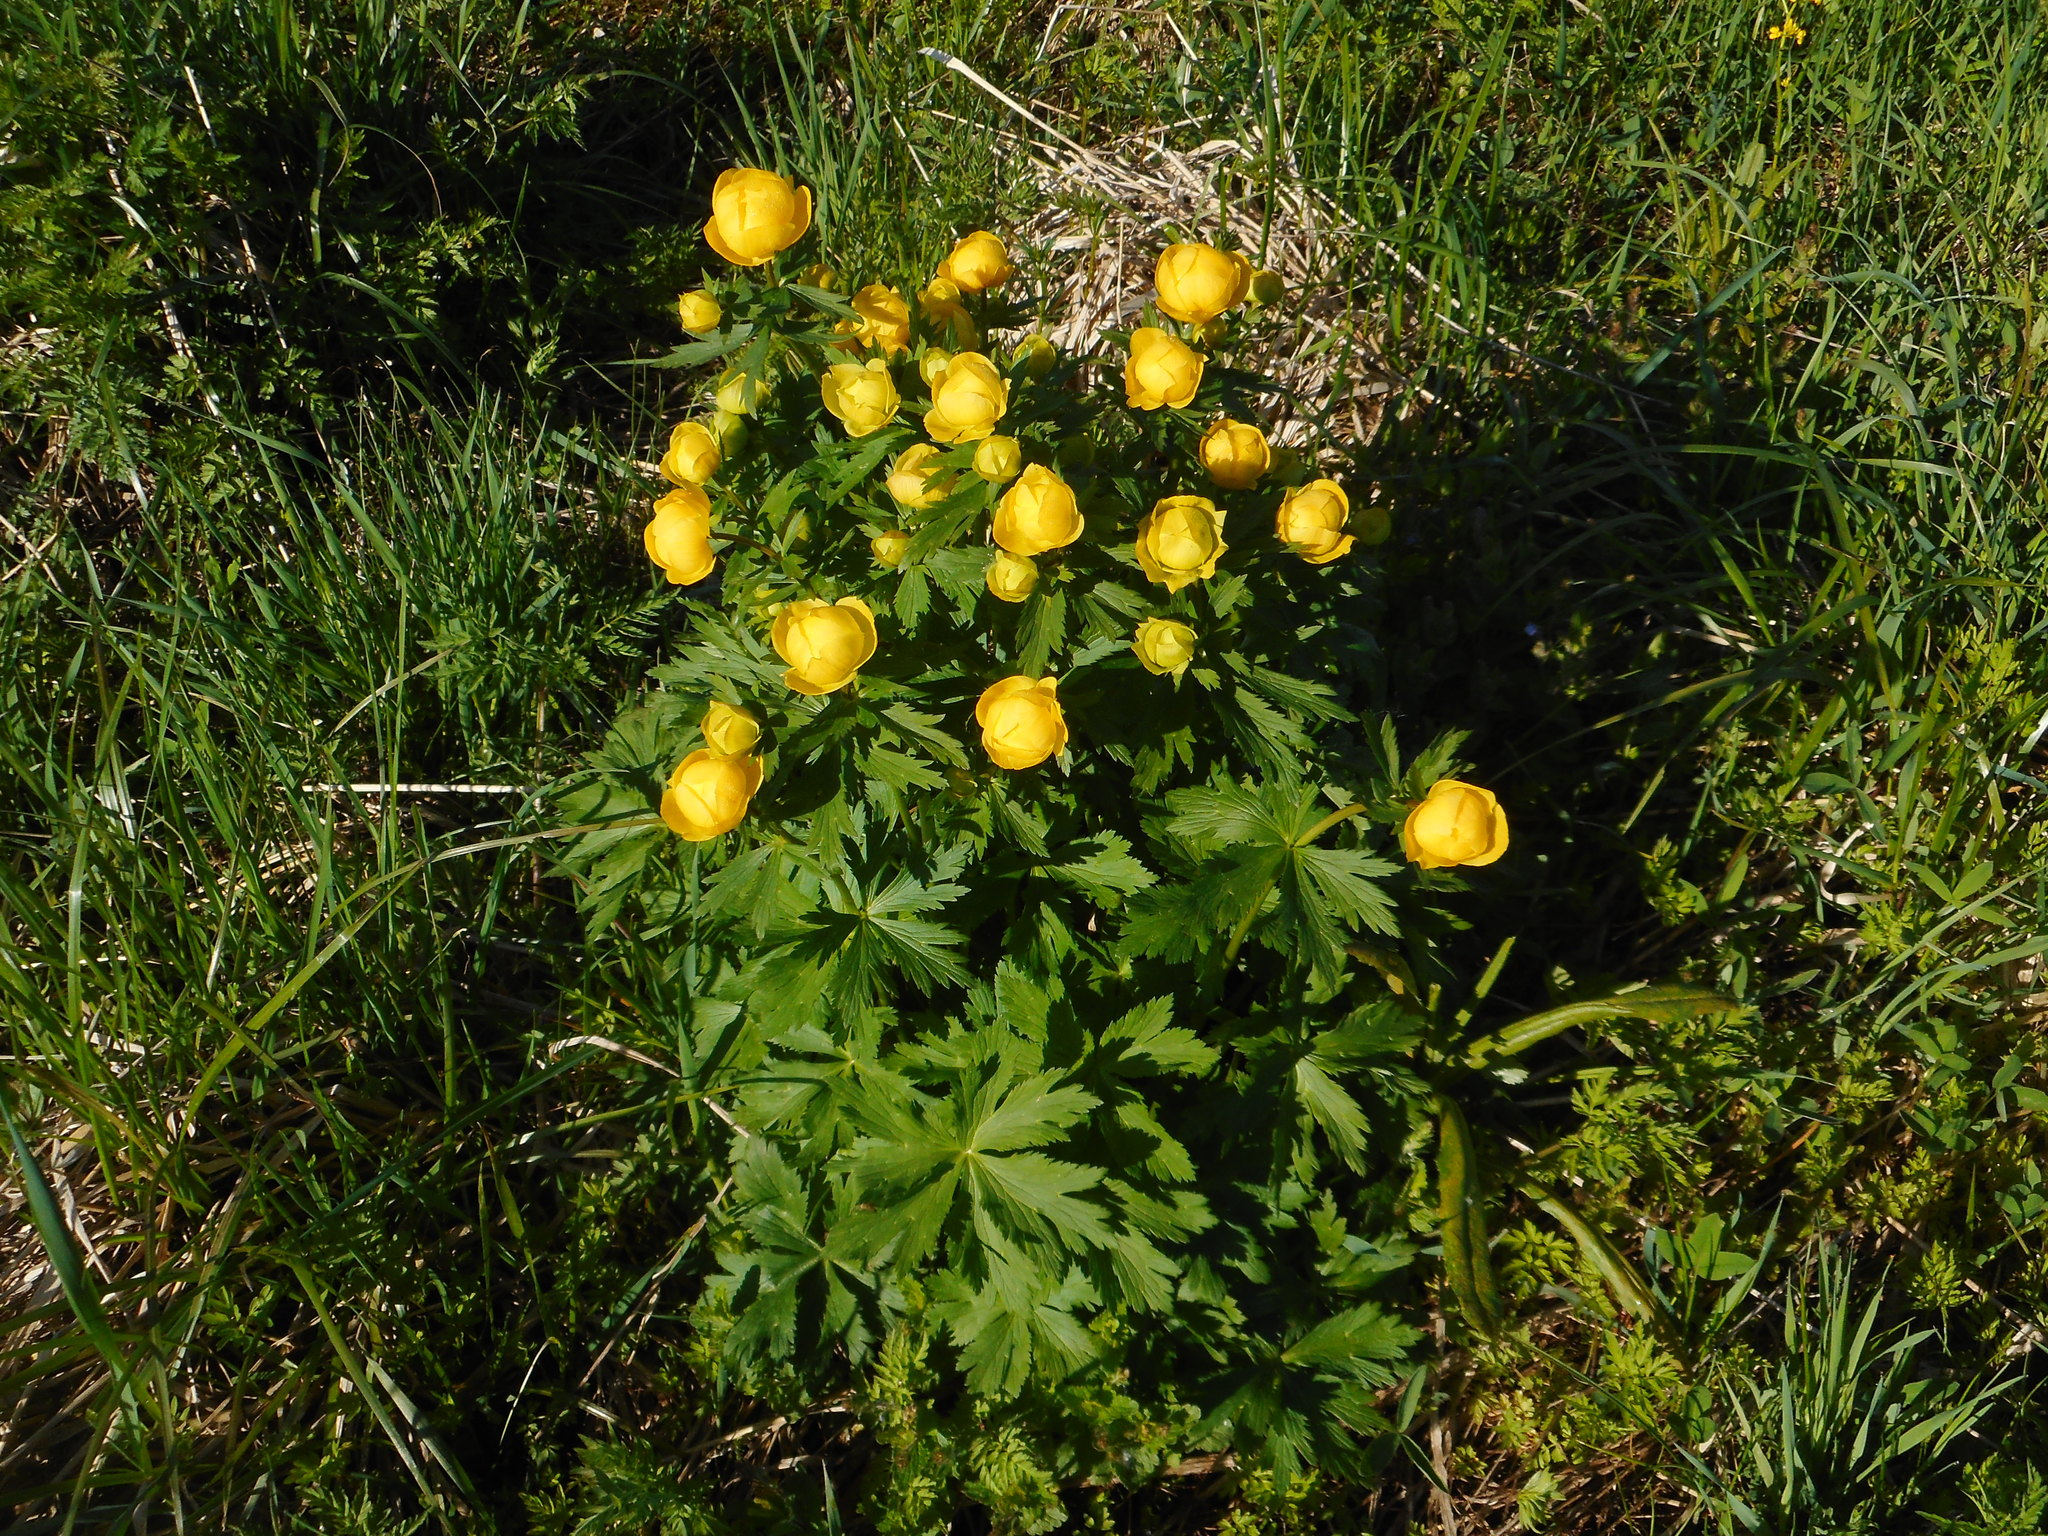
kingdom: Plantae
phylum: Tracheophyta
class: Magnoliopsida
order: Ranunculales
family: Ranunculaceae
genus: Trollius
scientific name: Trollius europaeus
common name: European globeflower
